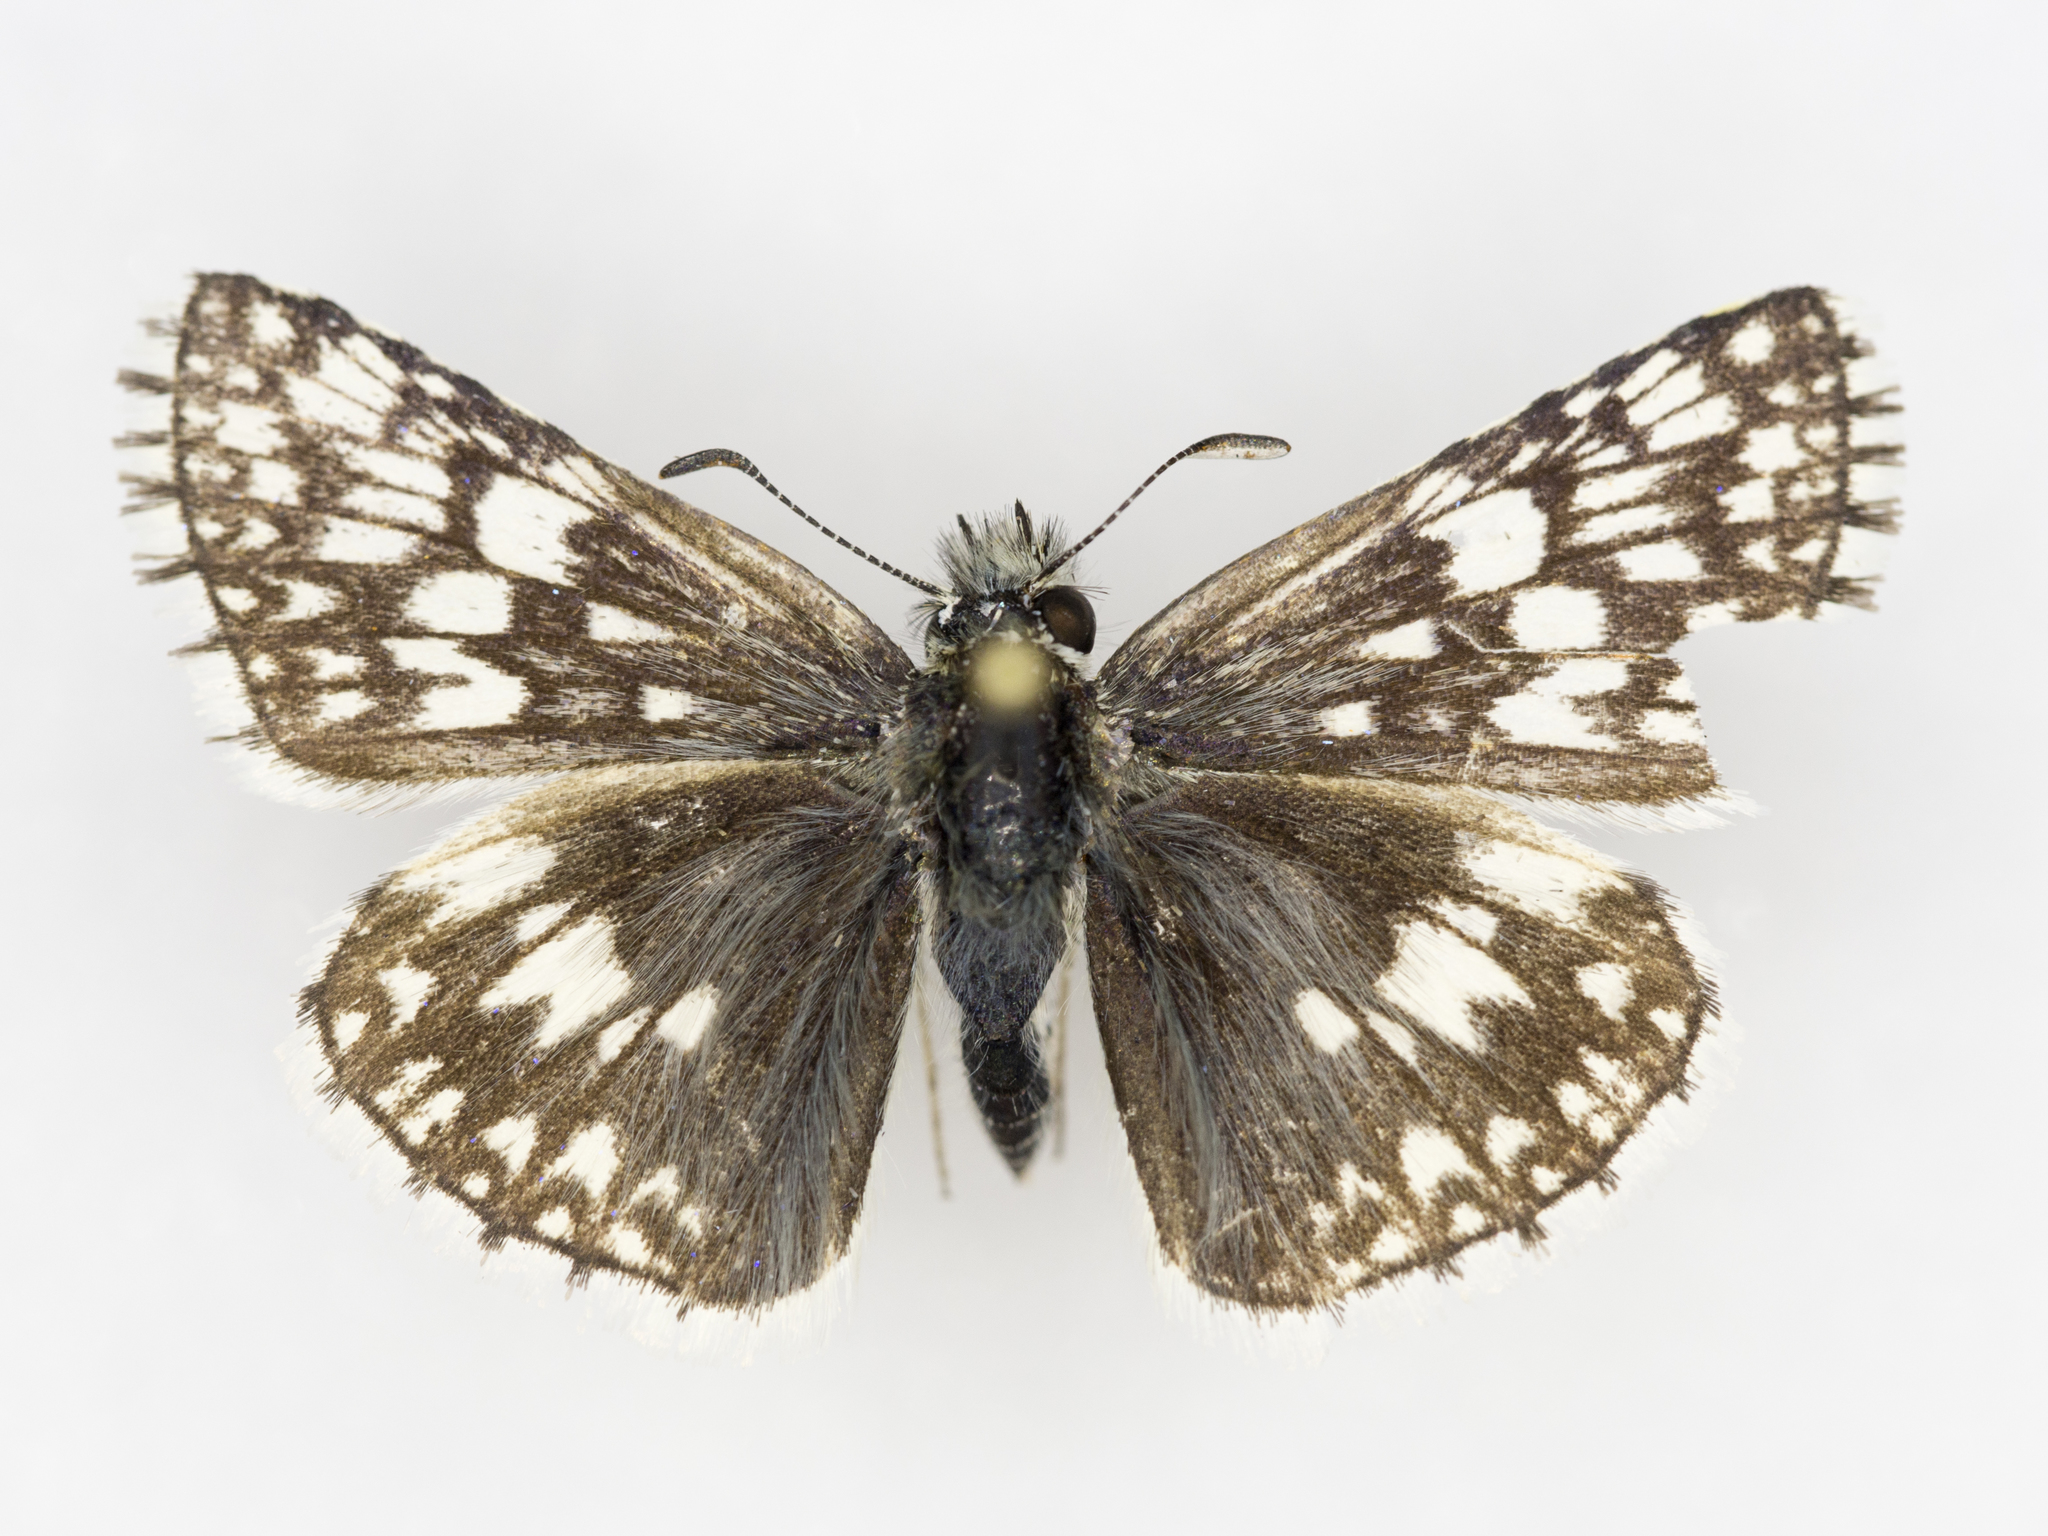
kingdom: Animalia
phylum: Arthropoda
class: Insecta
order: Lepidoptera
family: Hesperiidae
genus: Burnsius
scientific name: Burnsius communis
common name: Common checkered-skipper
